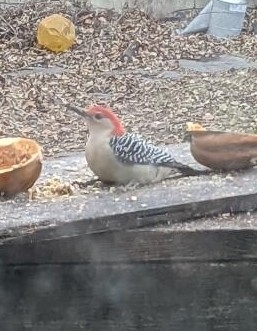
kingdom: Animalia
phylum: Chordata
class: Aves
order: Piciformes
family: Picidae
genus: Melanerpes
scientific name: Melanerpes carolinus
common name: Red-bellied woodpecker
